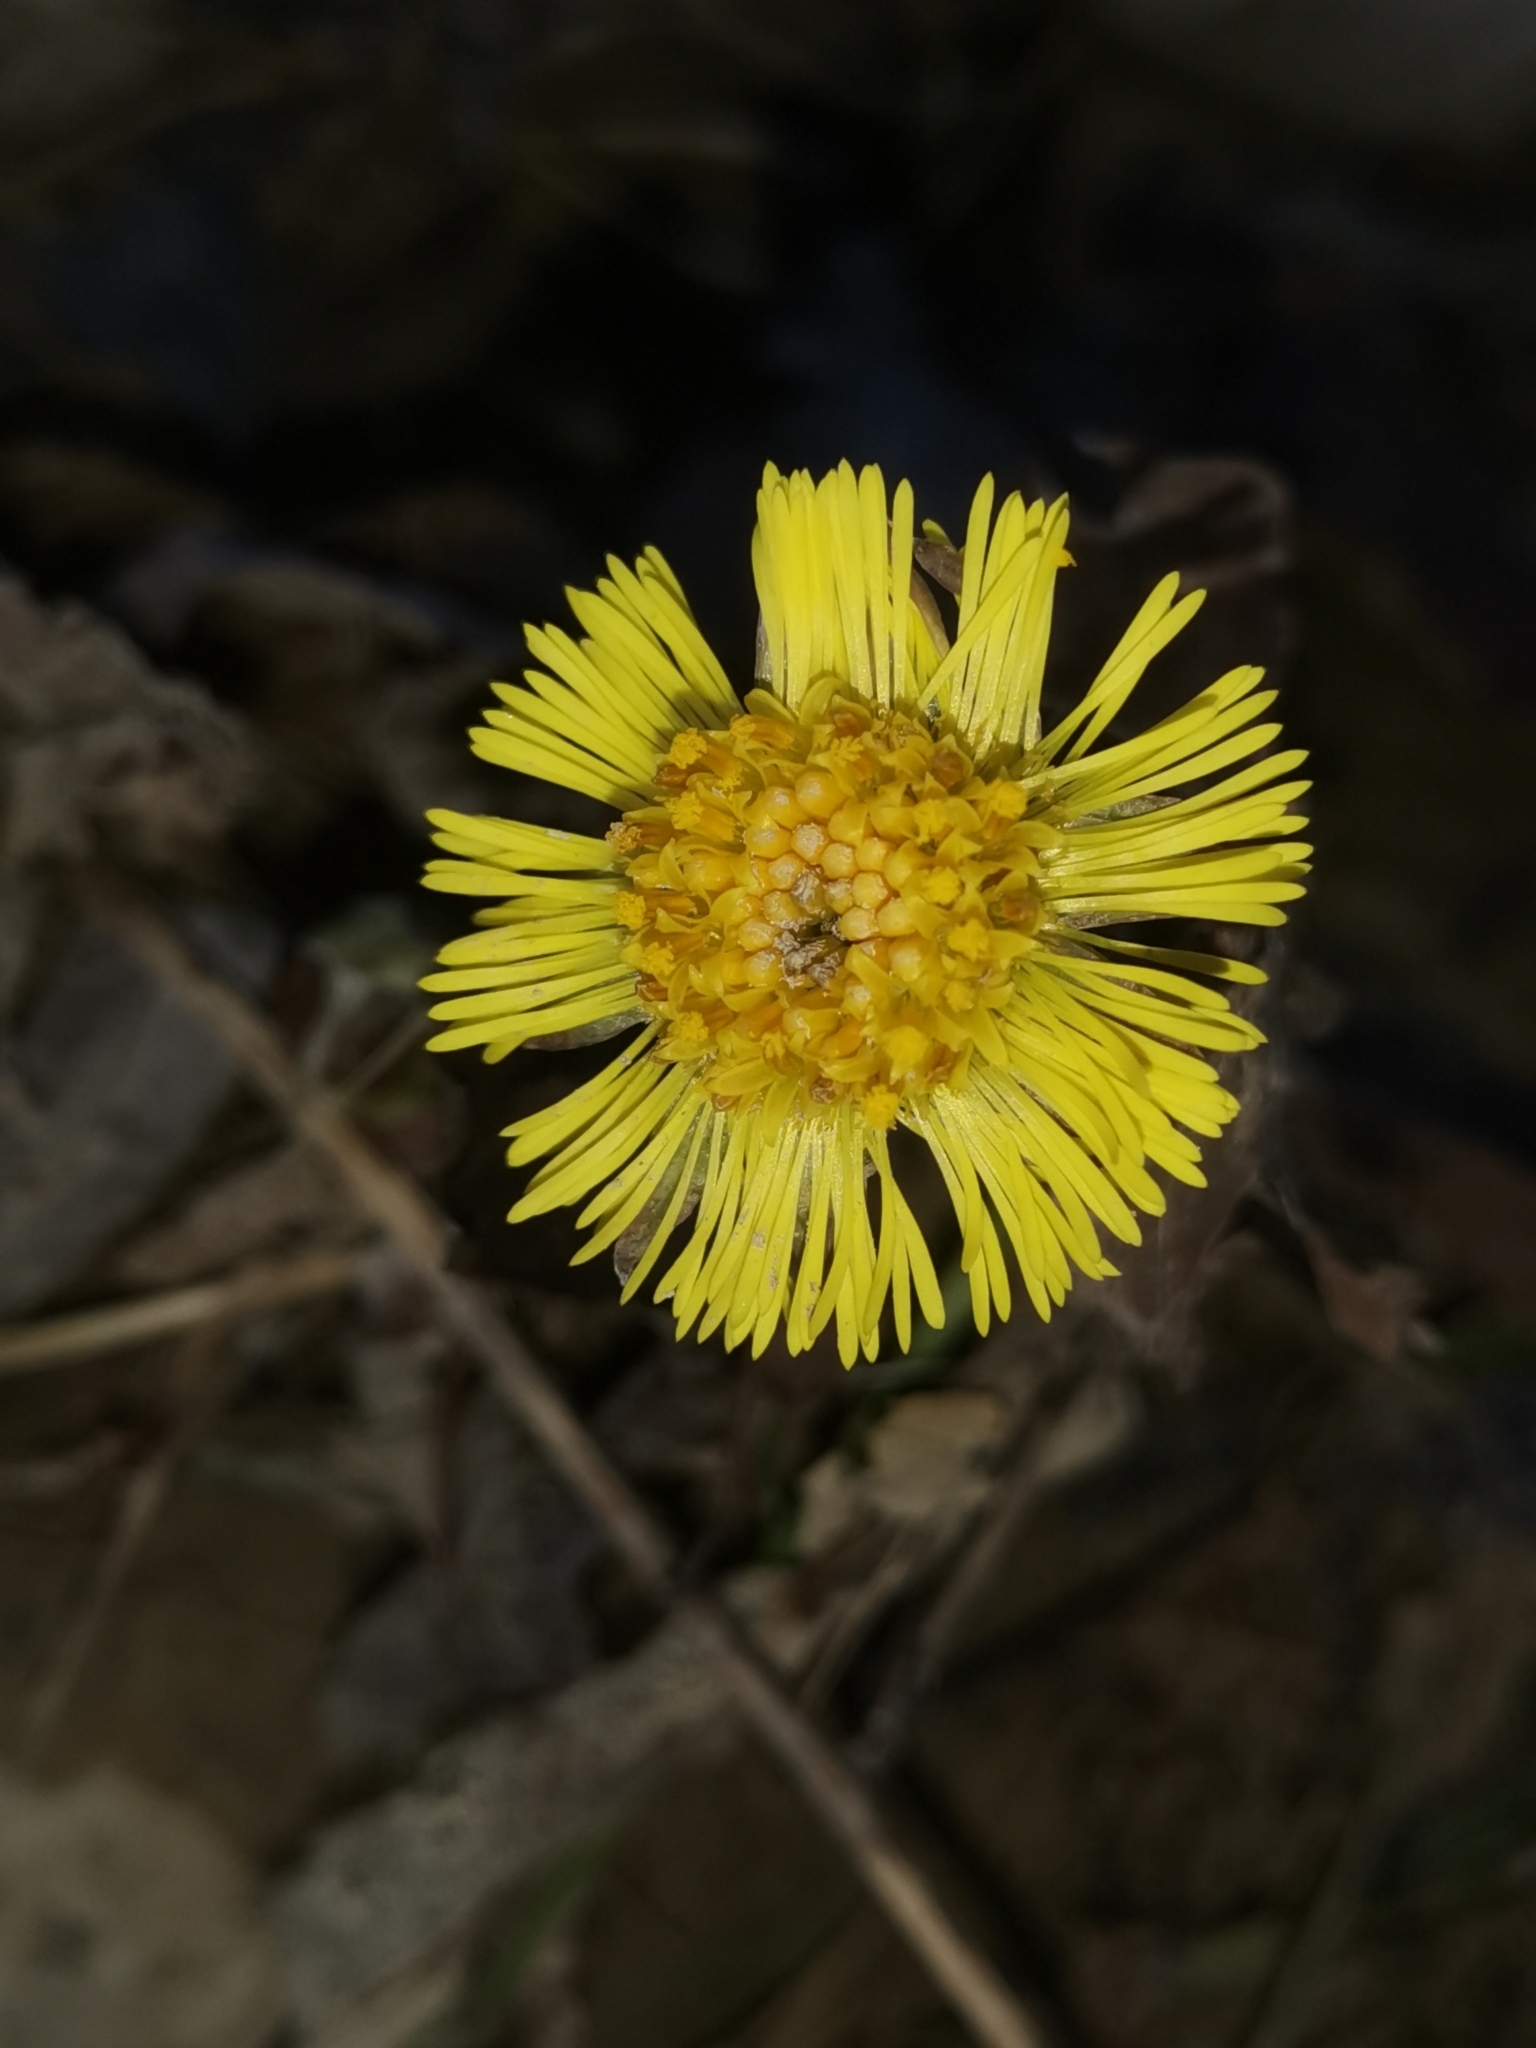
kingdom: Plantae
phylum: Tracheophyta
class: Magnoliopsida
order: Asterales
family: Asteraceae
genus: Tussilago
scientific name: Tussilago farfara
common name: Coltsfoot
